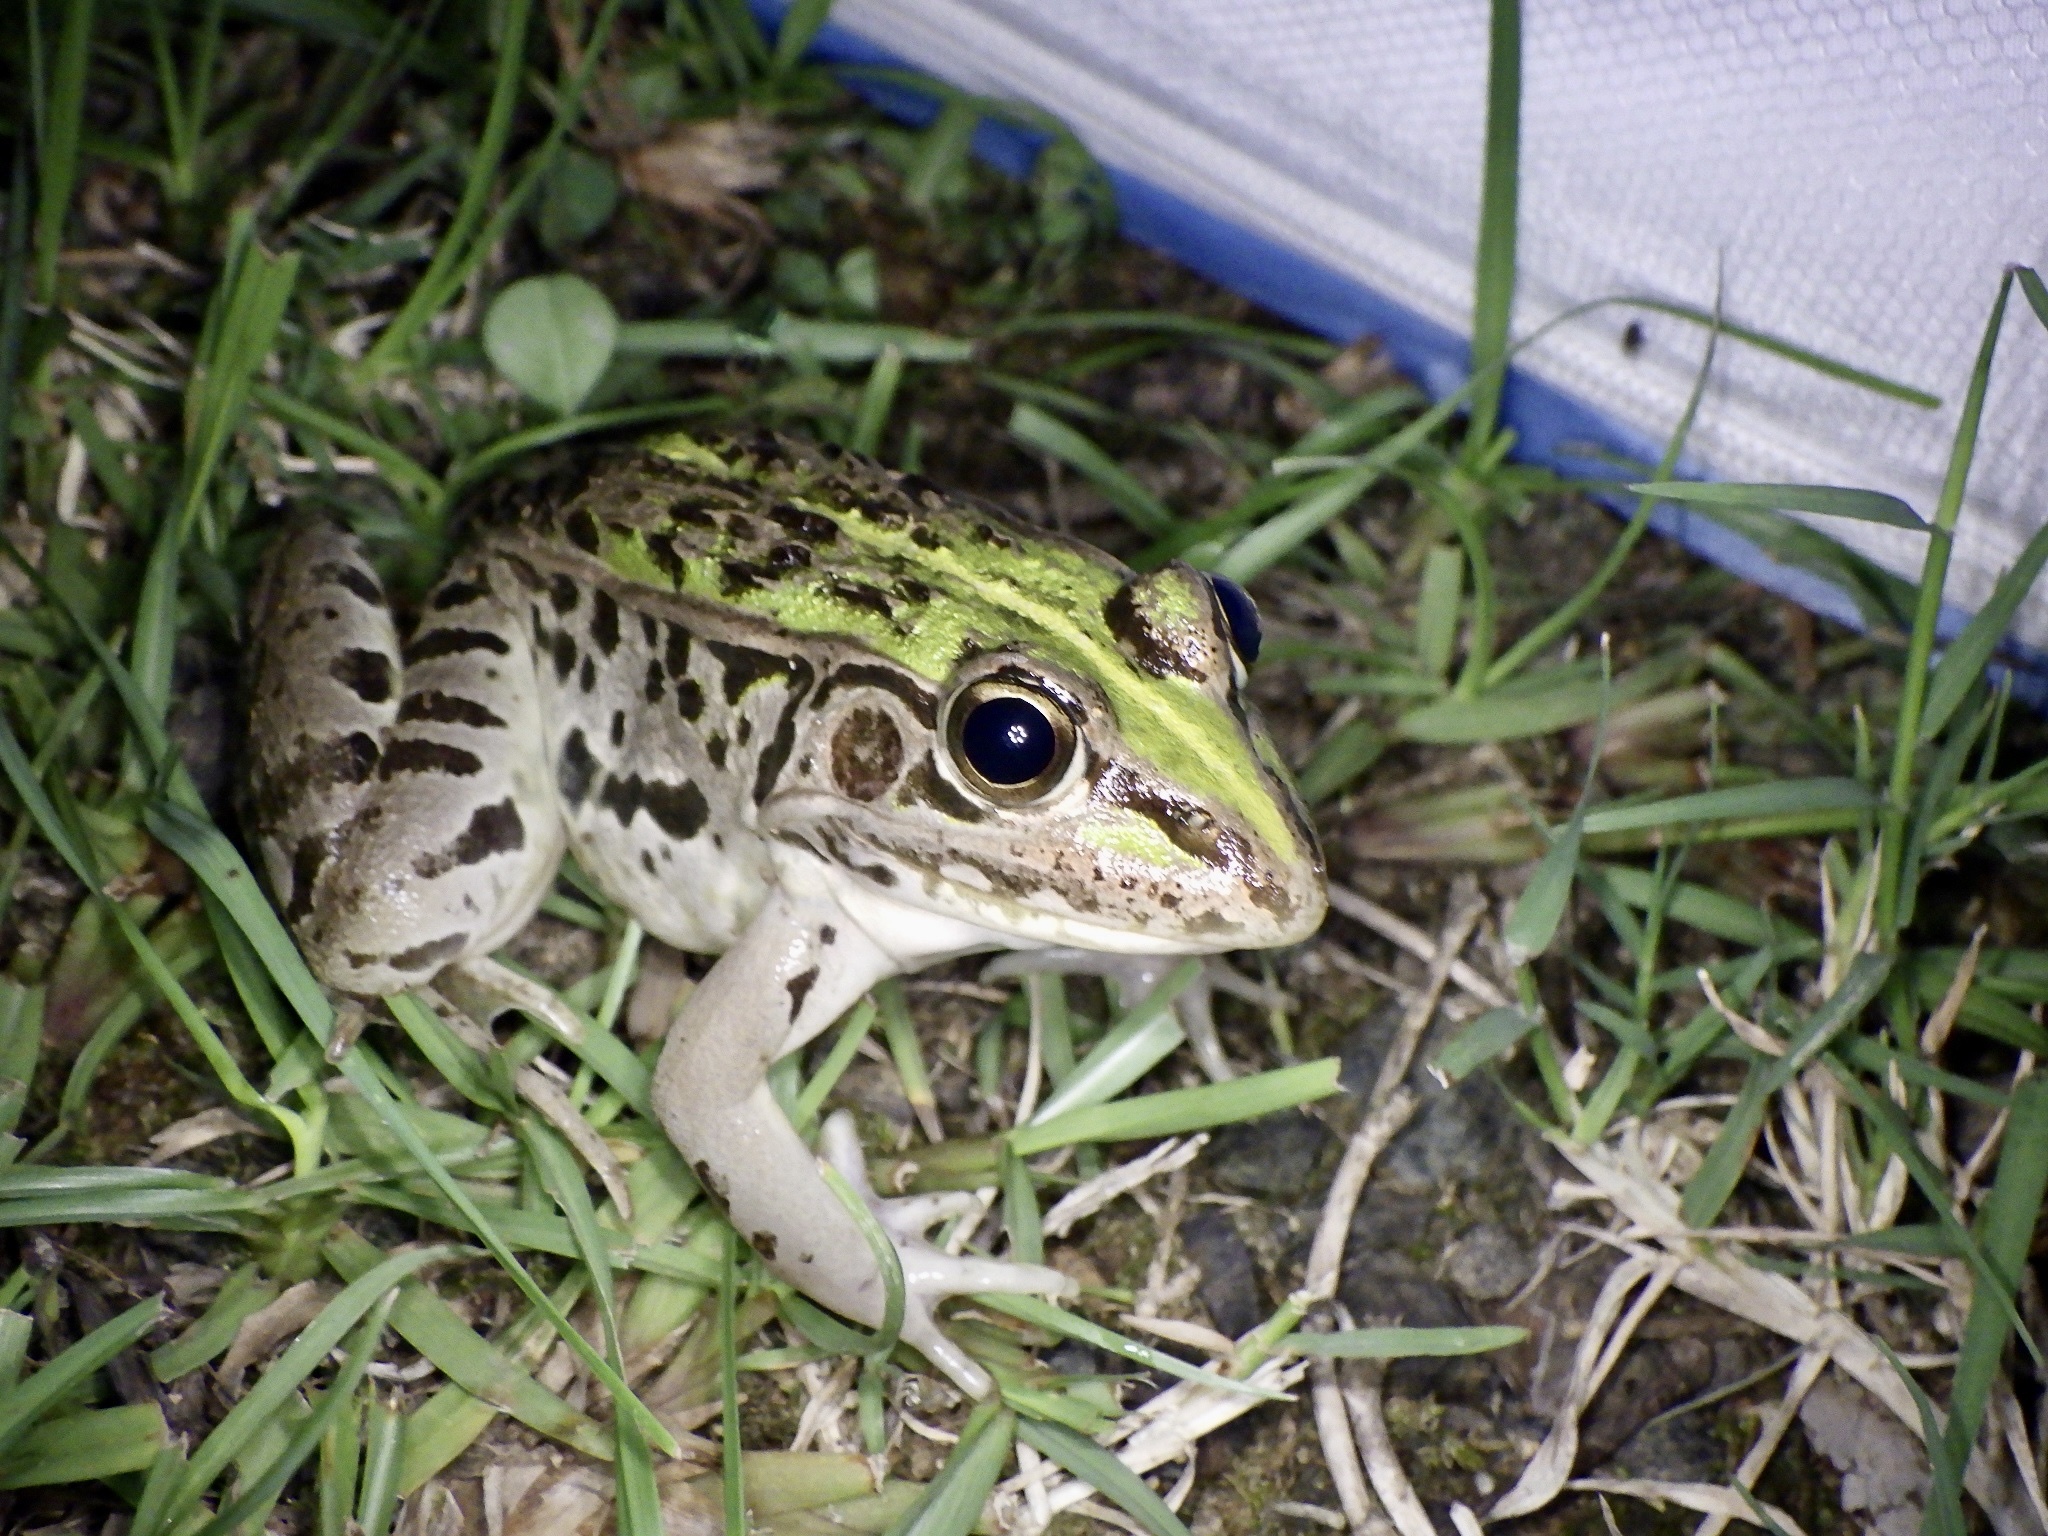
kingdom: Animalia
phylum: Chordata
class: Amphibia
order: Anura
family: Ranidae
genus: Pelophylax
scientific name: Pelophylax nigromaculatus
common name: Black-spotted pond frog
